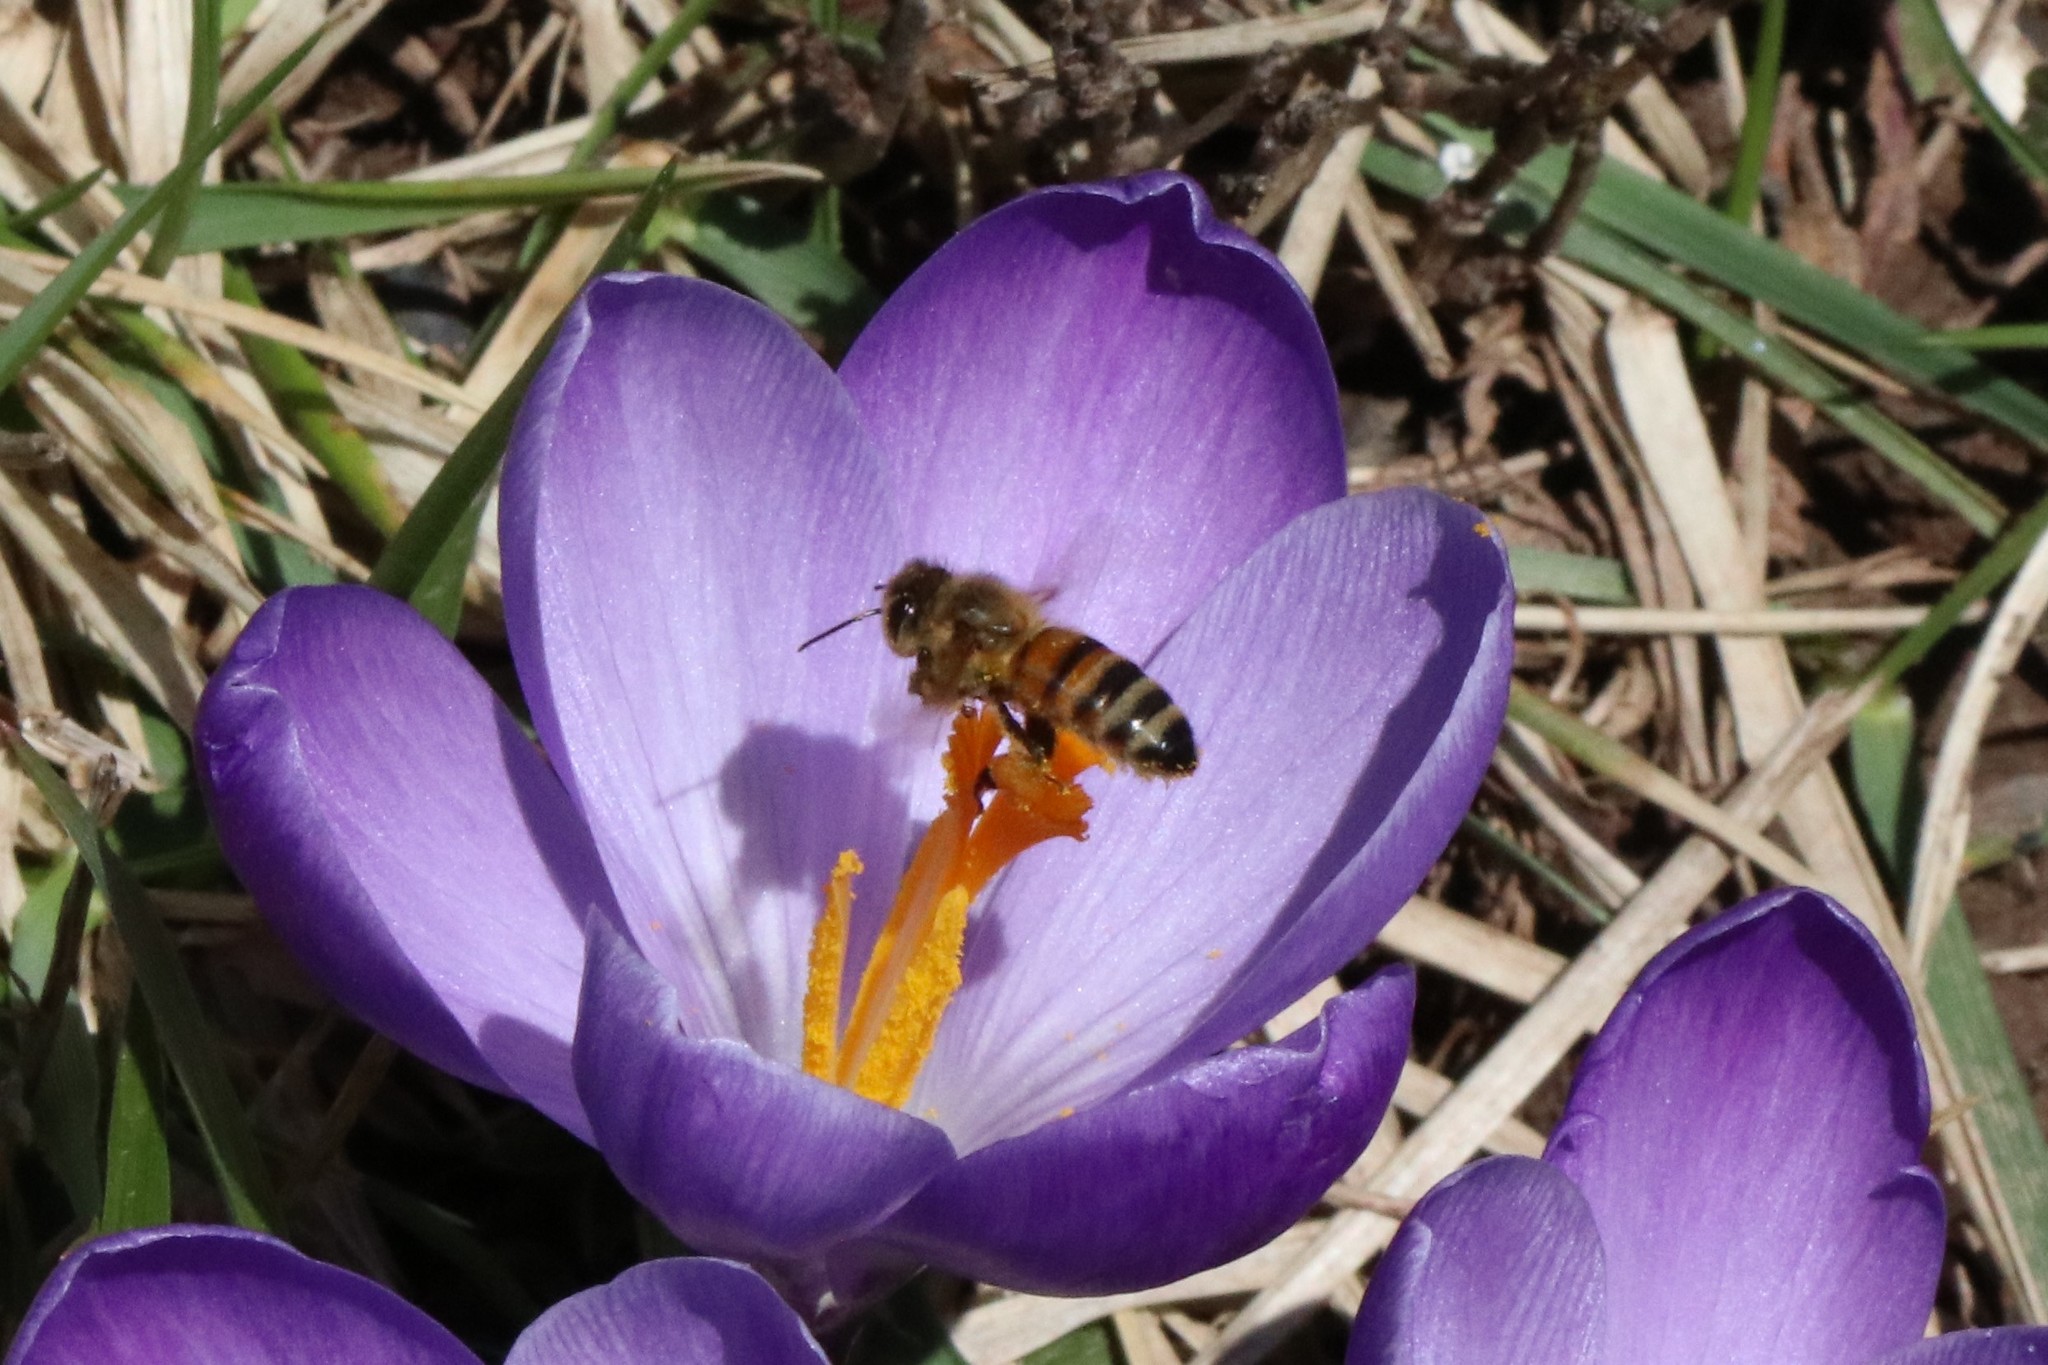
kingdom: Animalia
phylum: Arthropoda
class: Insecta
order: Hymenoptera
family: Apidae
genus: Apis
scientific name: Apis mellifera
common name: Honey bee
